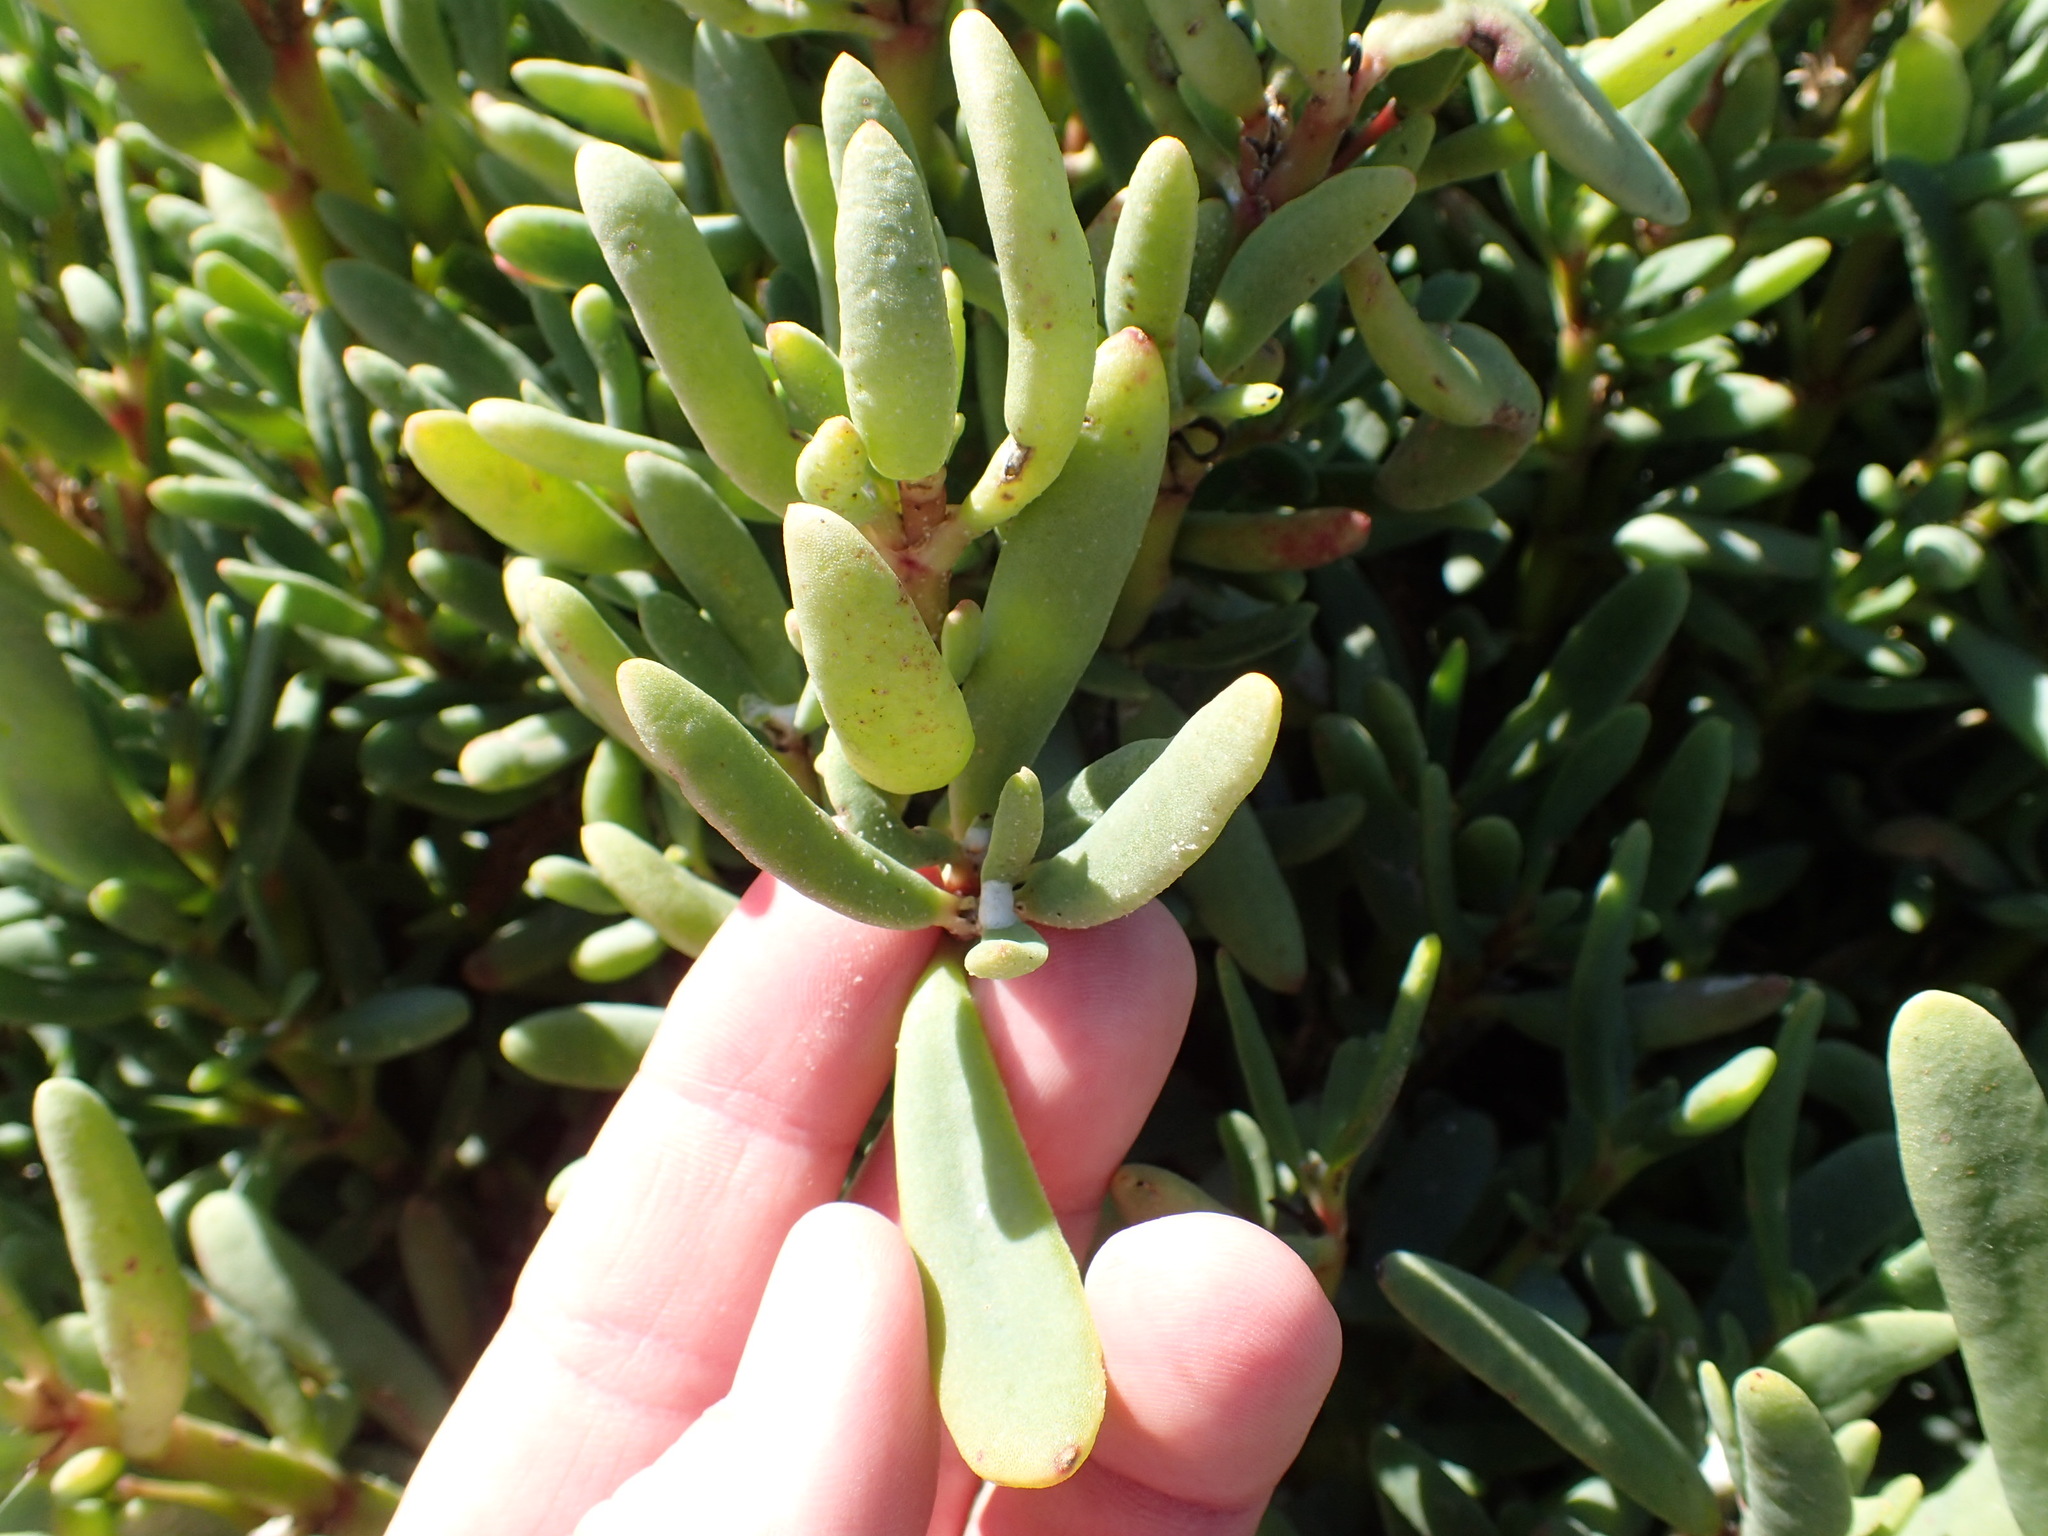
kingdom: Plantae
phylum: Tracheophyta
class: Magnoliopsida
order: Caryophyllales
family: Aizoaceae
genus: Sesuvium
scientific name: Sesuvium portulacastrum
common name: Sea-purslane
